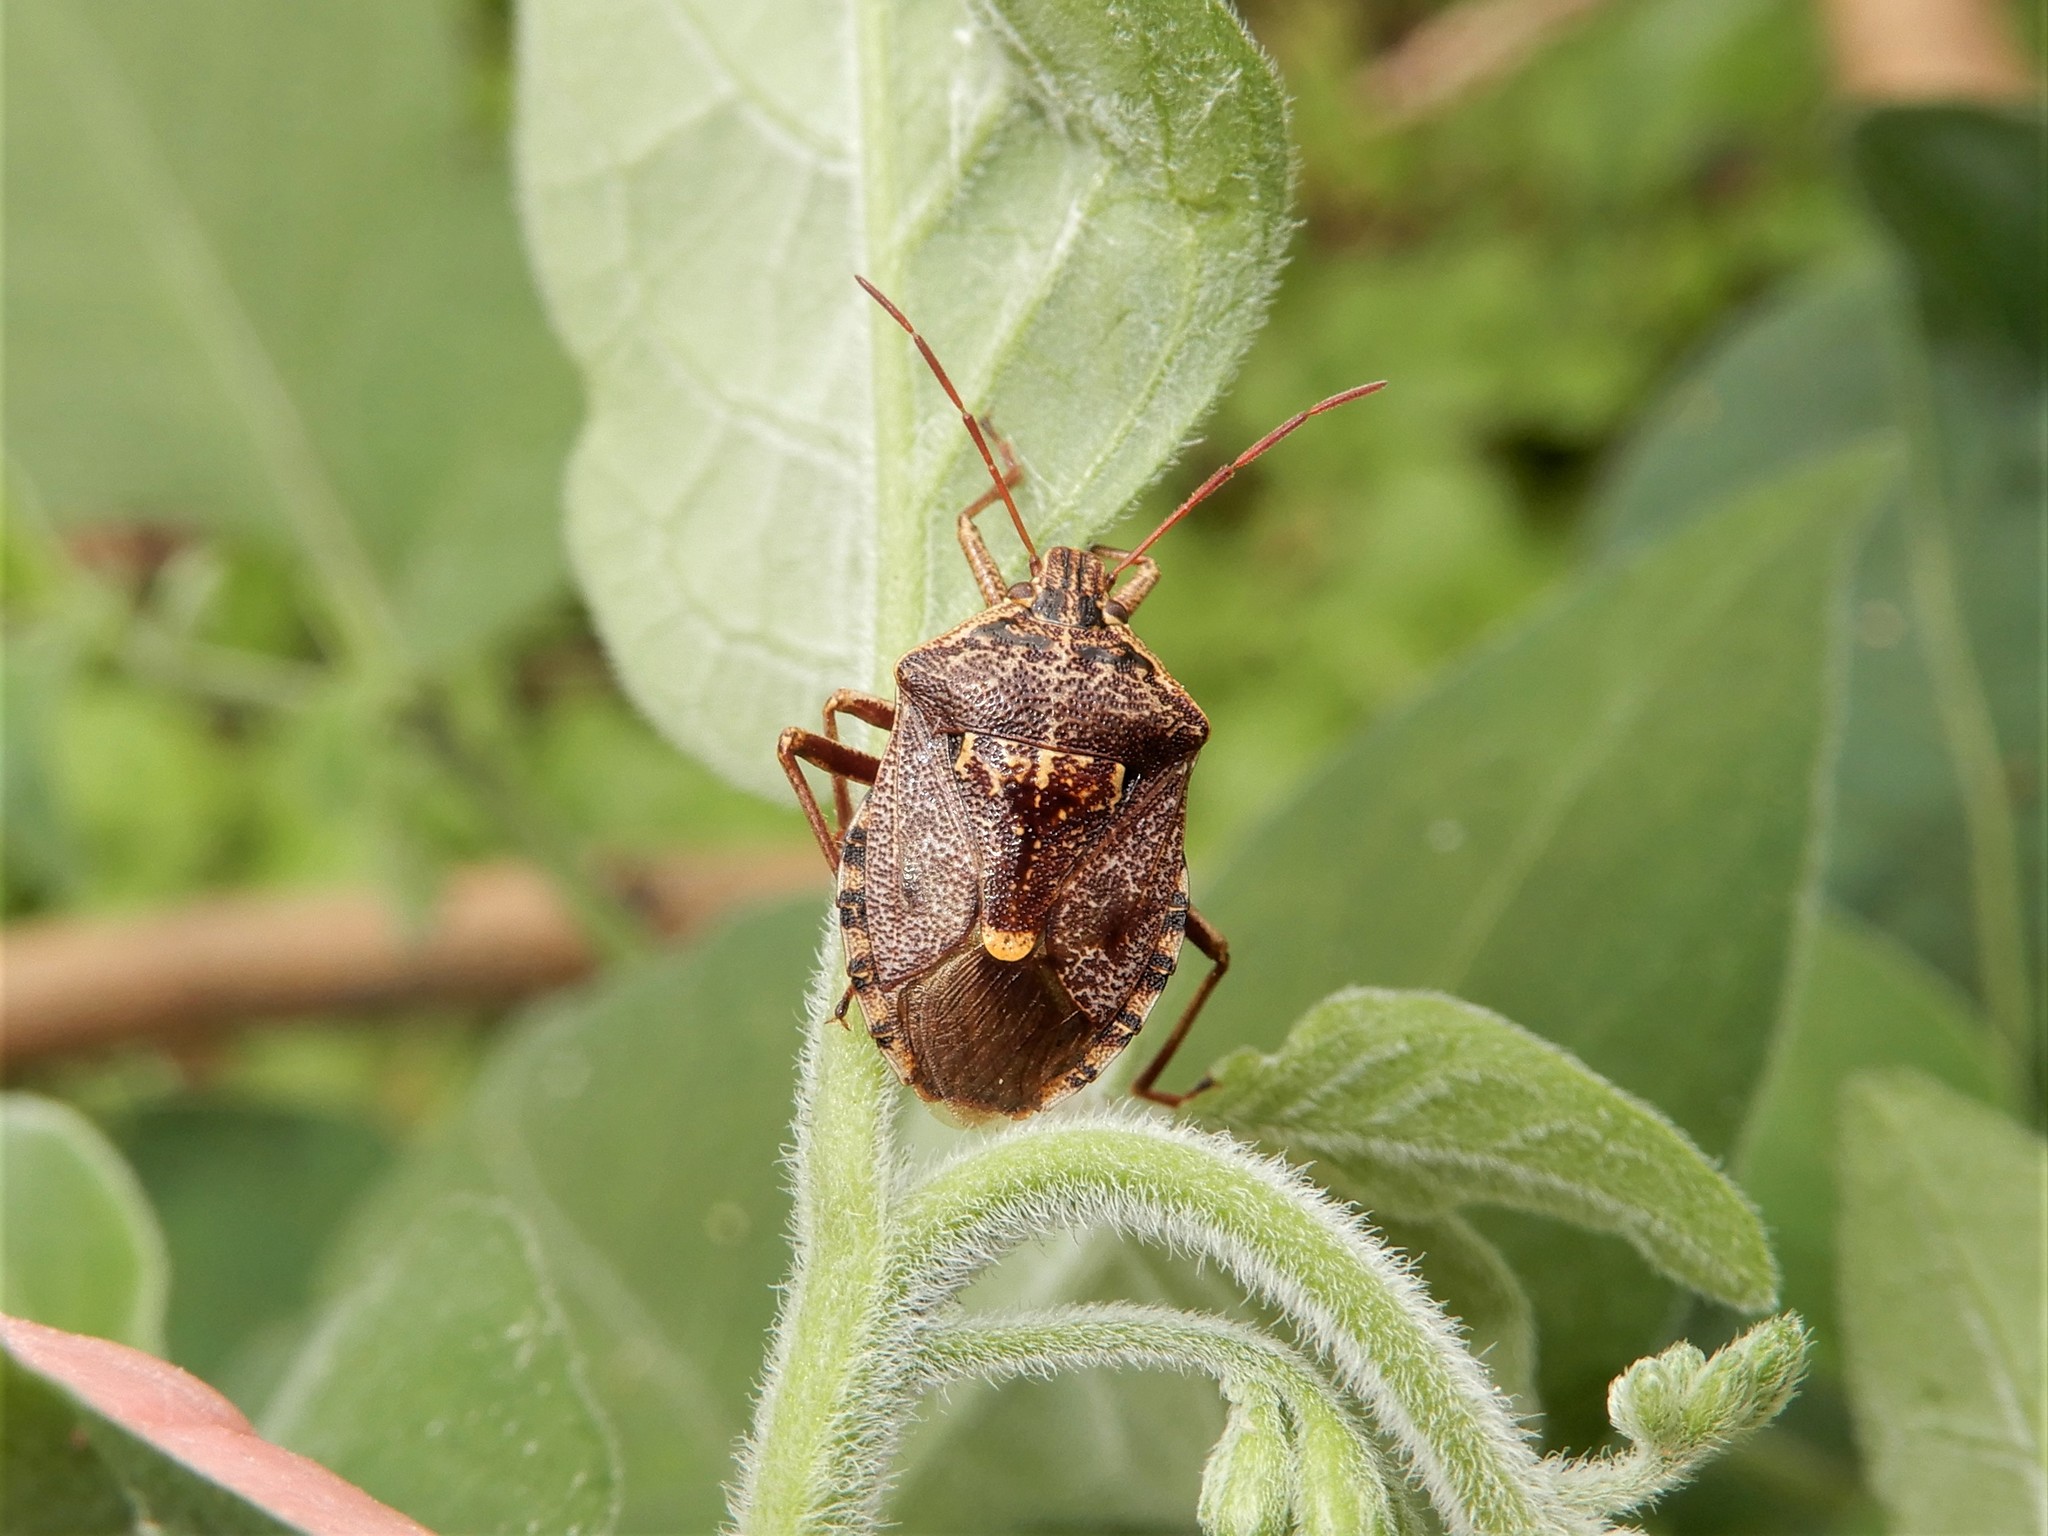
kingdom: Animalia
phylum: Arthropoda
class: Insecta
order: Hemiptera
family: Pentatomidae
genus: Cermatulus
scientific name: Cermatulus nasalis
